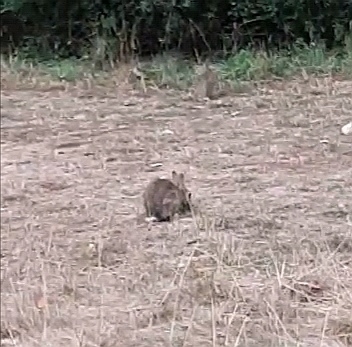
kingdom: Animalia
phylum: Chordata
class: Mammalia
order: Lagomorpha
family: Leporidae
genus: Oryctolagus
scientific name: Oryctolagus cuniculus
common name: European rabbit
